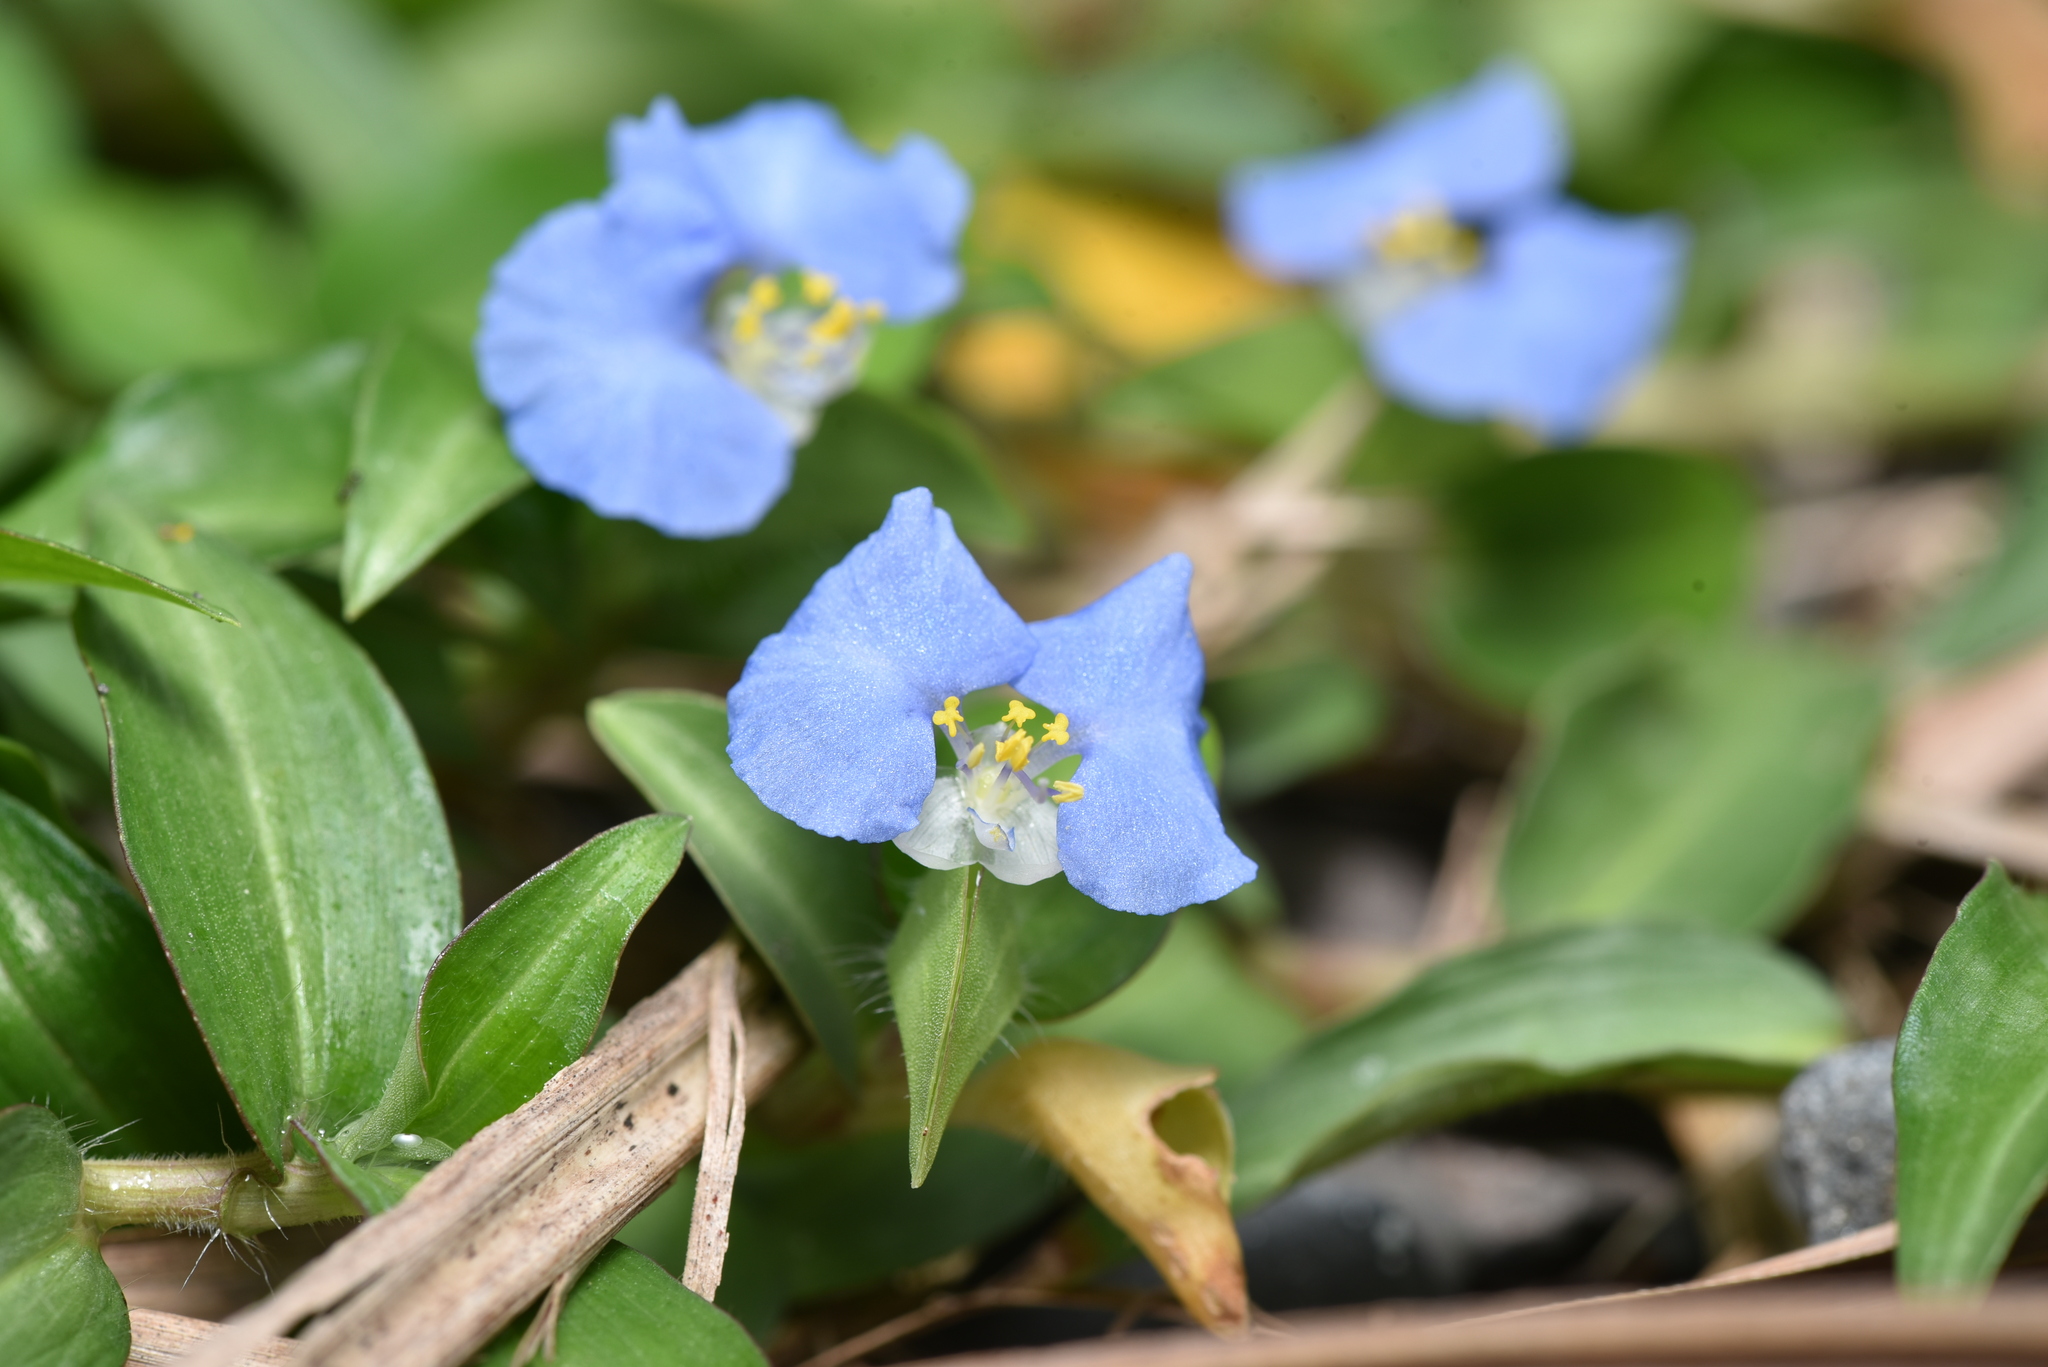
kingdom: Plantae
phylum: Tracheophyta
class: Liliopsida
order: Commelinales
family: Commelinaceae
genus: Commelina
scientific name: Commelina auriculata
